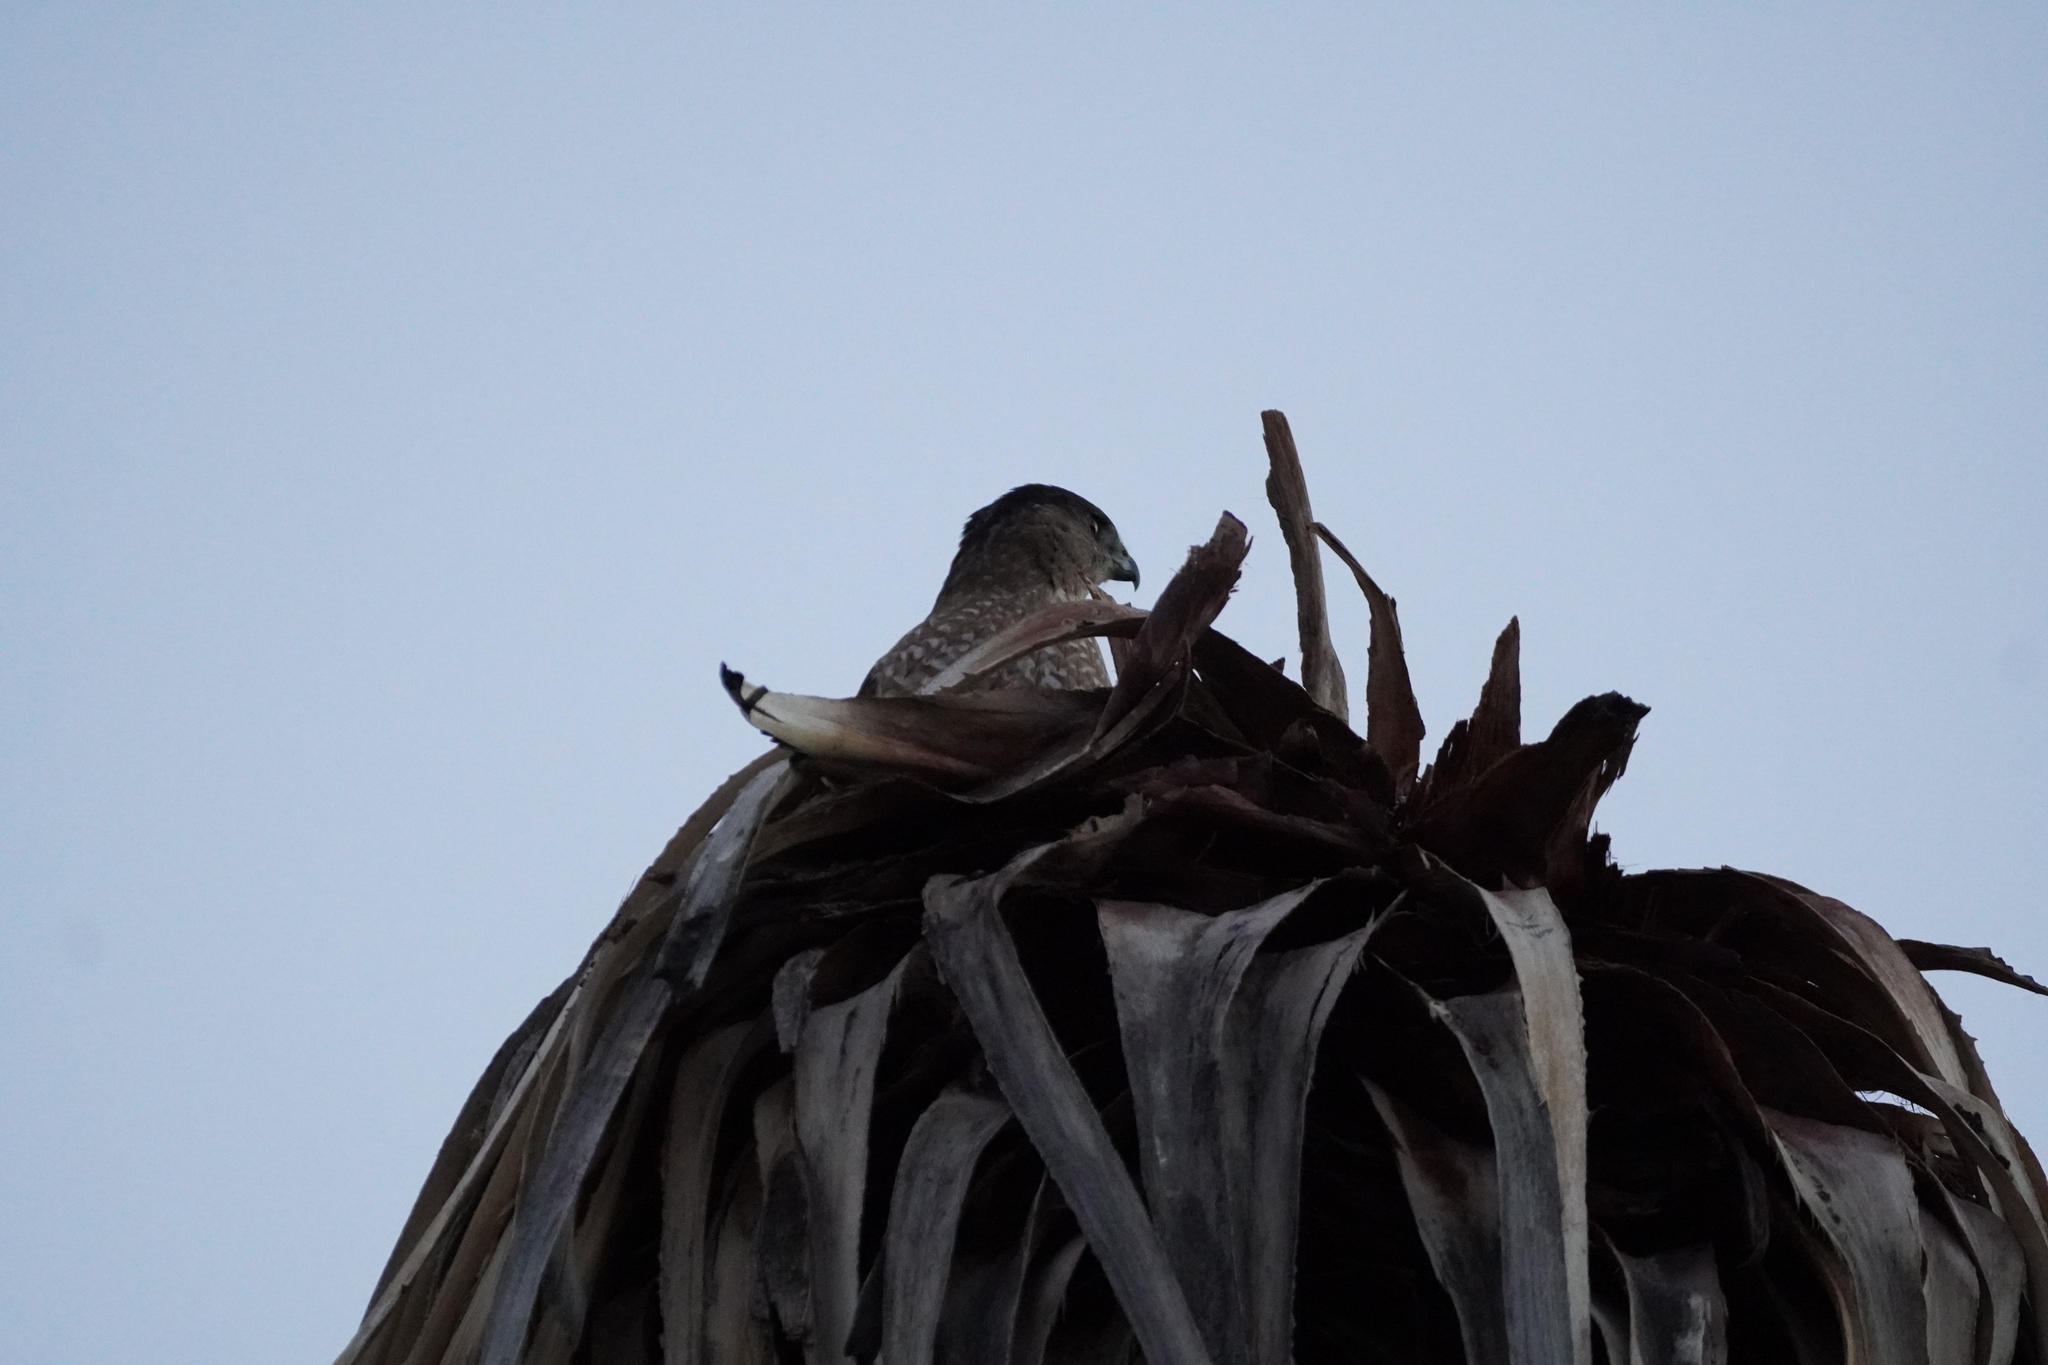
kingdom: Animalia
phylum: Chordata
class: Aves
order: Accipitriformes
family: Accipitridae
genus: Accipiter
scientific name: Accipiter cooperii
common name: Cooper's hawk
